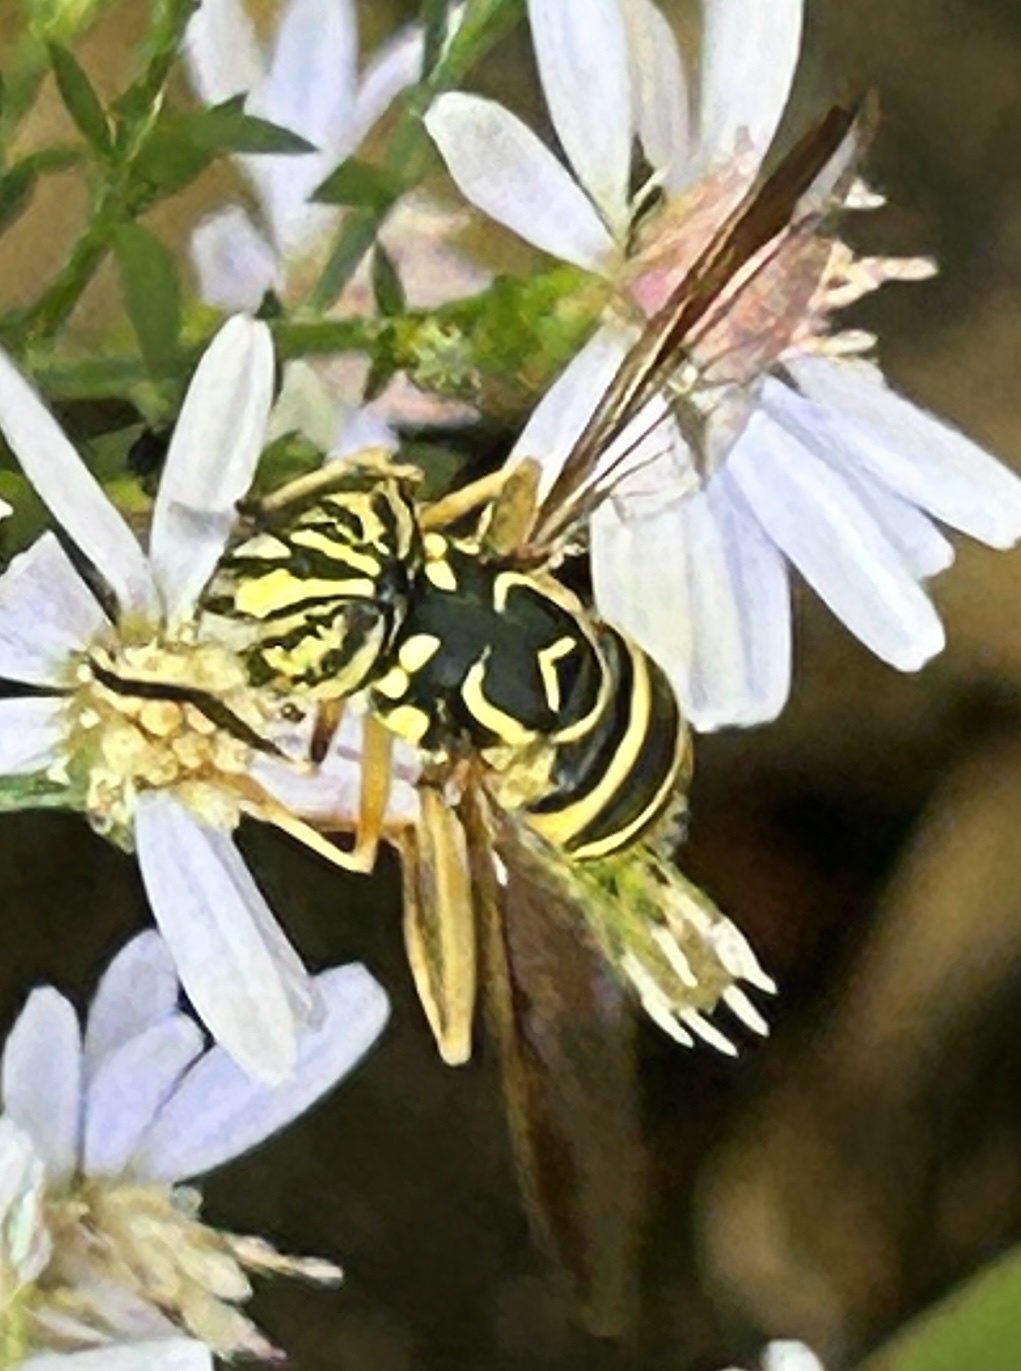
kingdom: Animalia
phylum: Arthropoda
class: Insecta
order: Diptera
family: Syrphidae
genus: Spilomyia
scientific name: Spilomyia longicornis
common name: Eastern hornet fly
